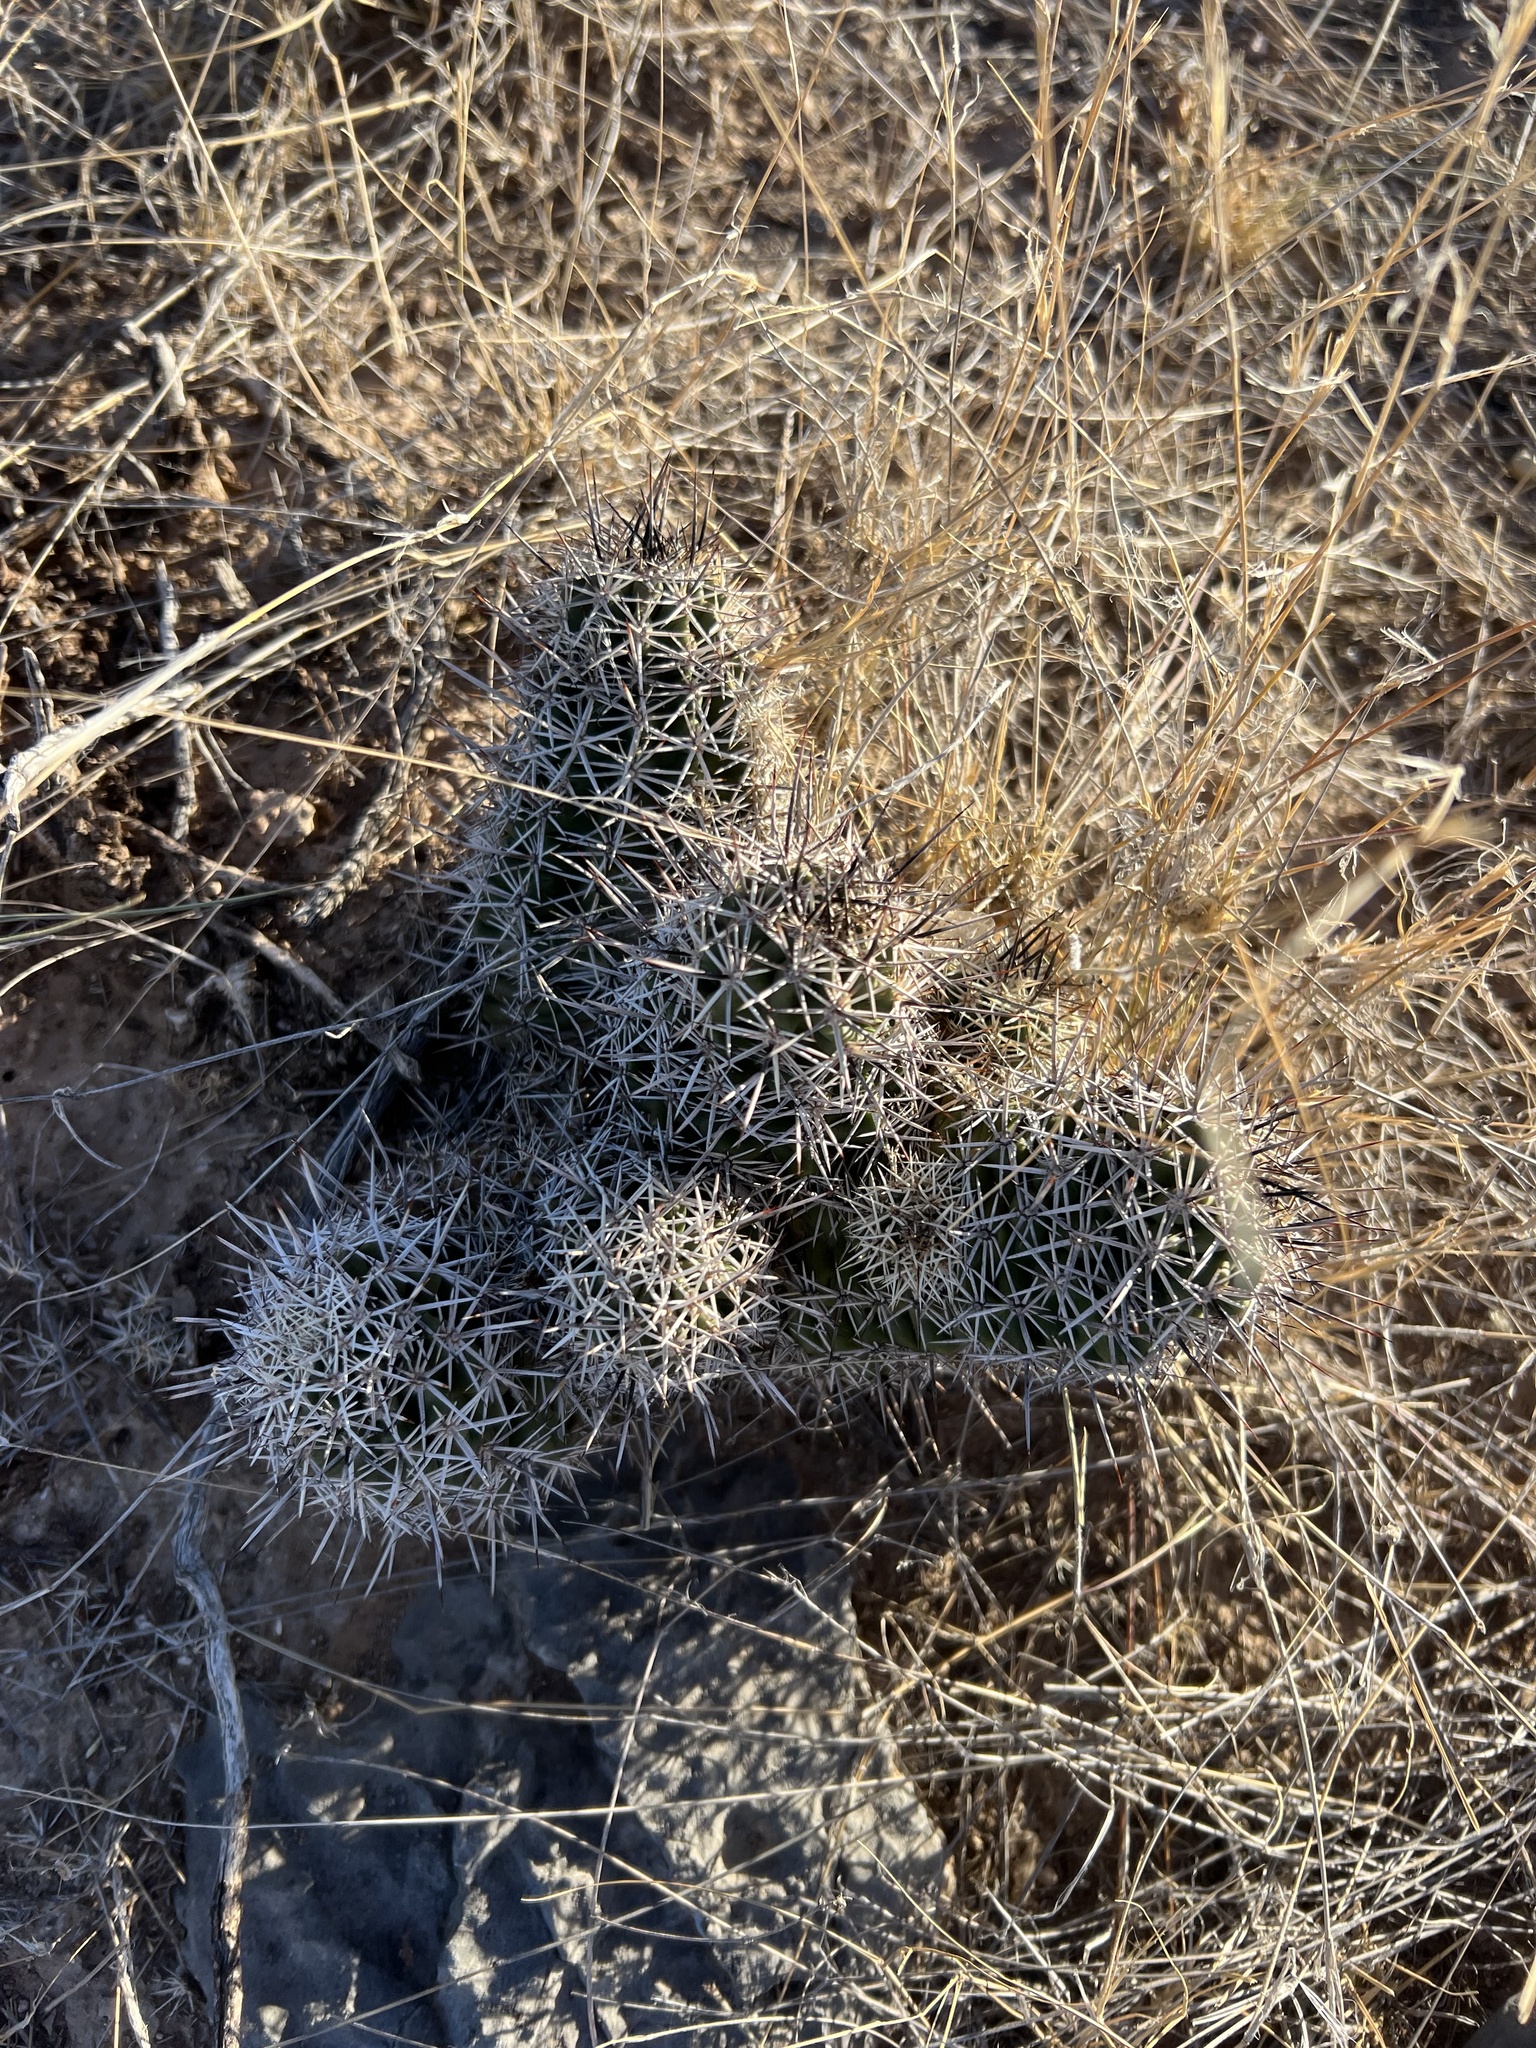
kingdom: Plantae
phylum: Tracheophyta
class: Magnoliopsida
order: Caryophyllales
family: Cactaceae
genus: Echinocereus
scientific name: Echinocereus fendleri
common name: Fendler's hedgehog cactus
